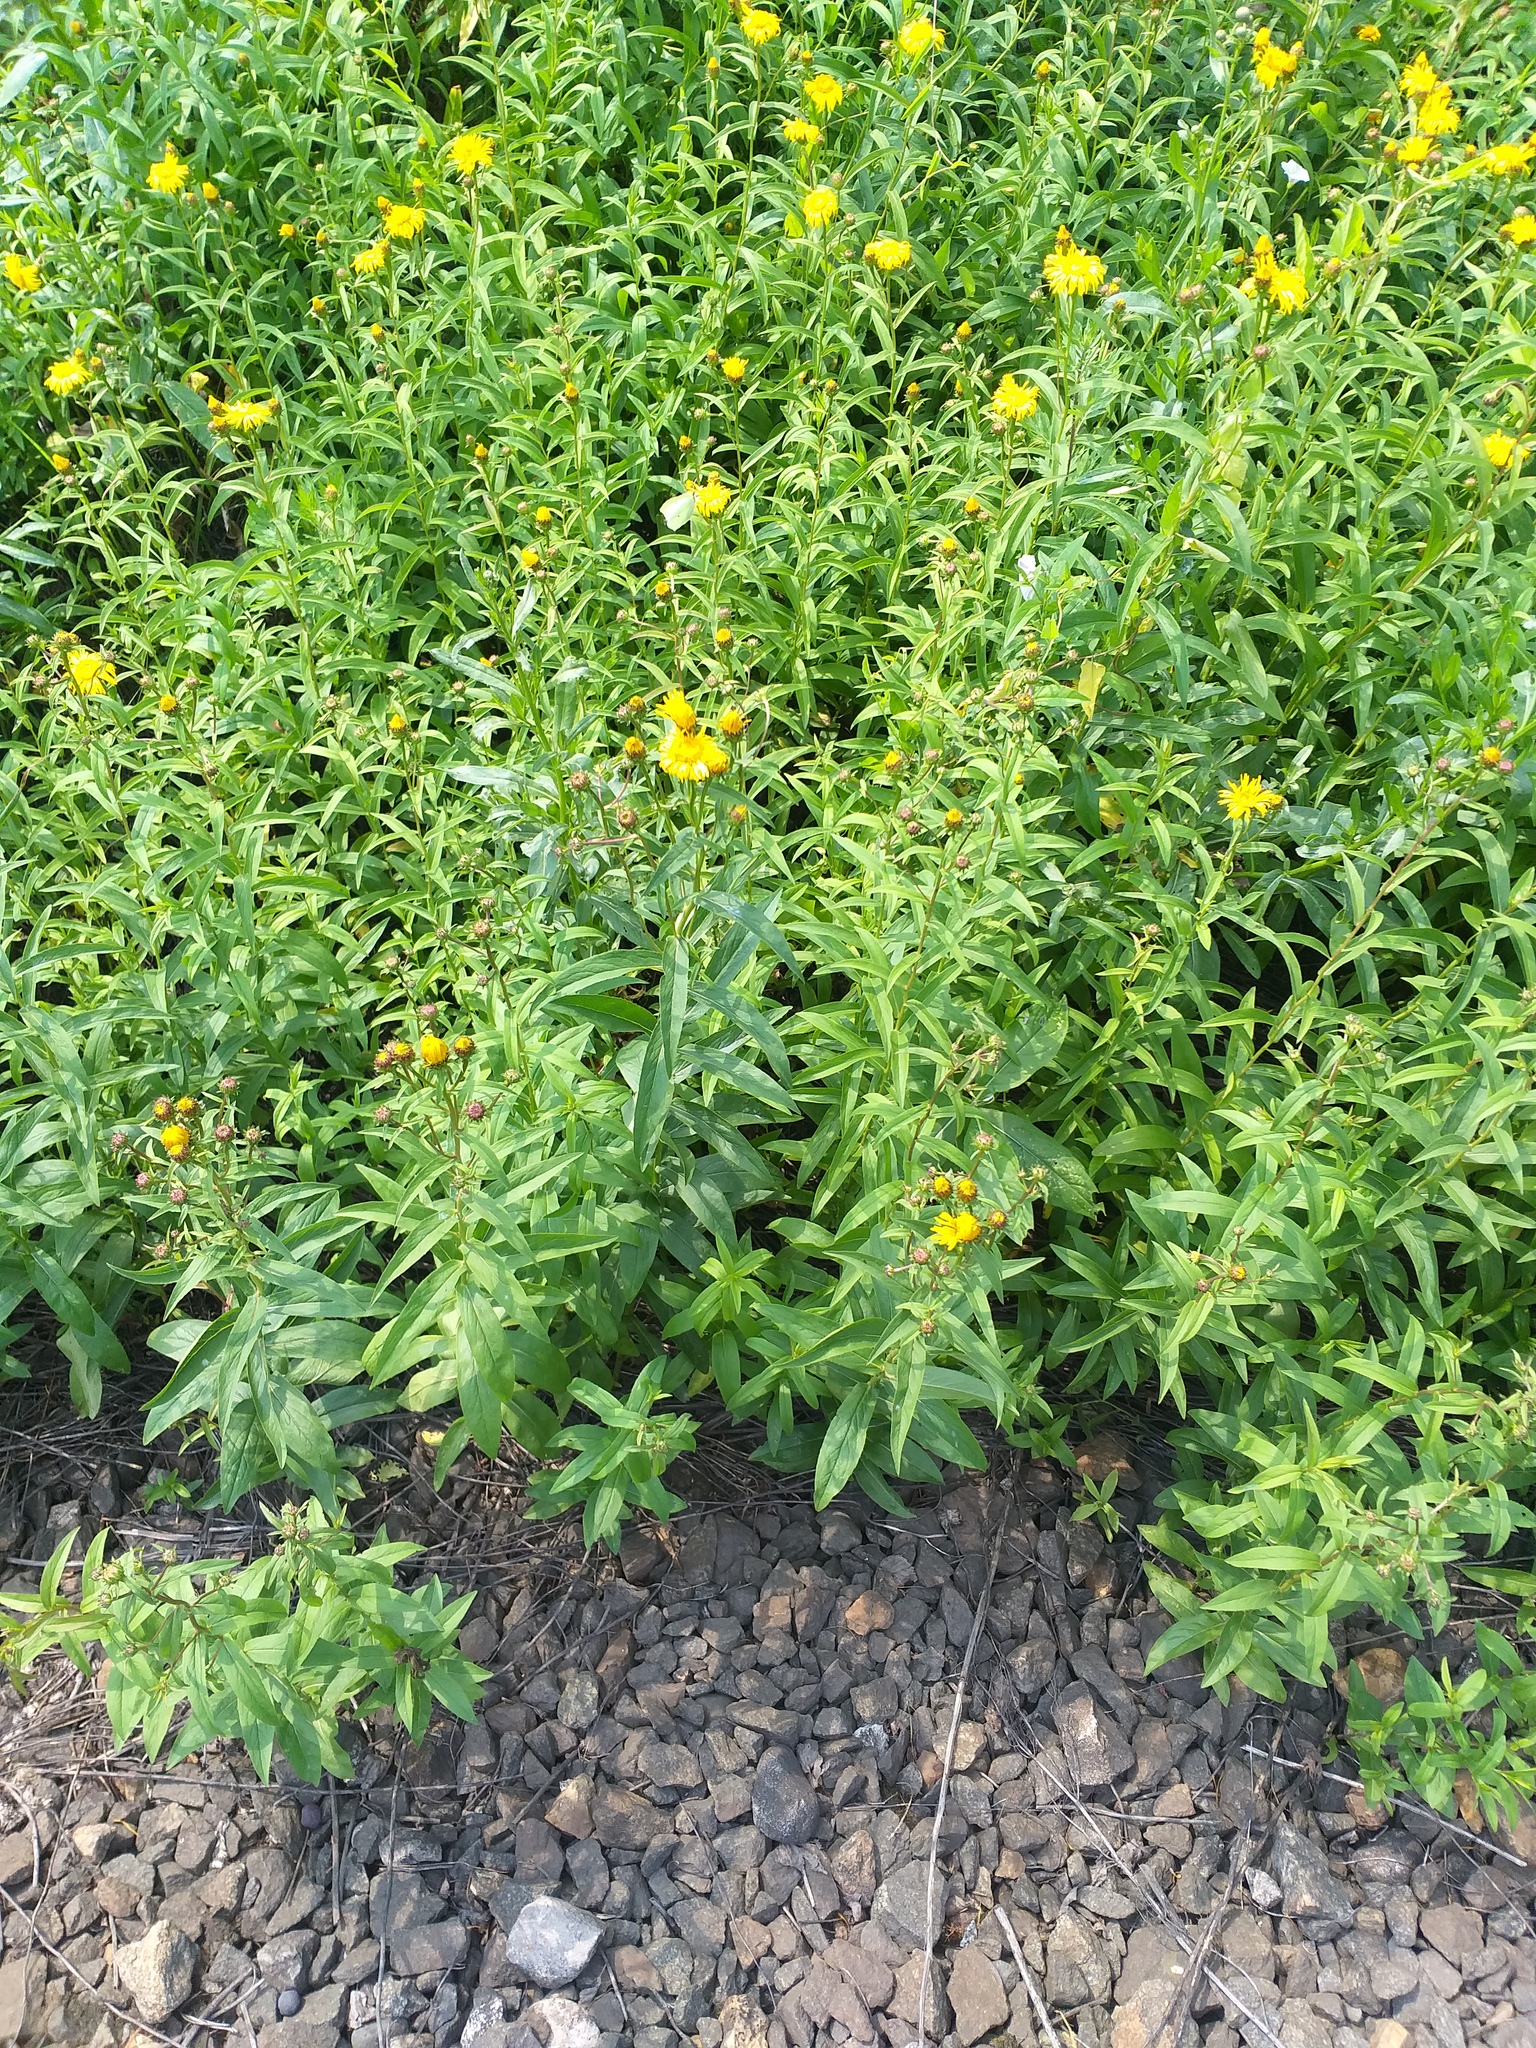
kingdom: Plantae
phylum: Tracheophyta
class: Magnoliopsida
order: Asterales
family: Asteraceae
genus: Pentanema
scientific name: Pentanema salicinum
